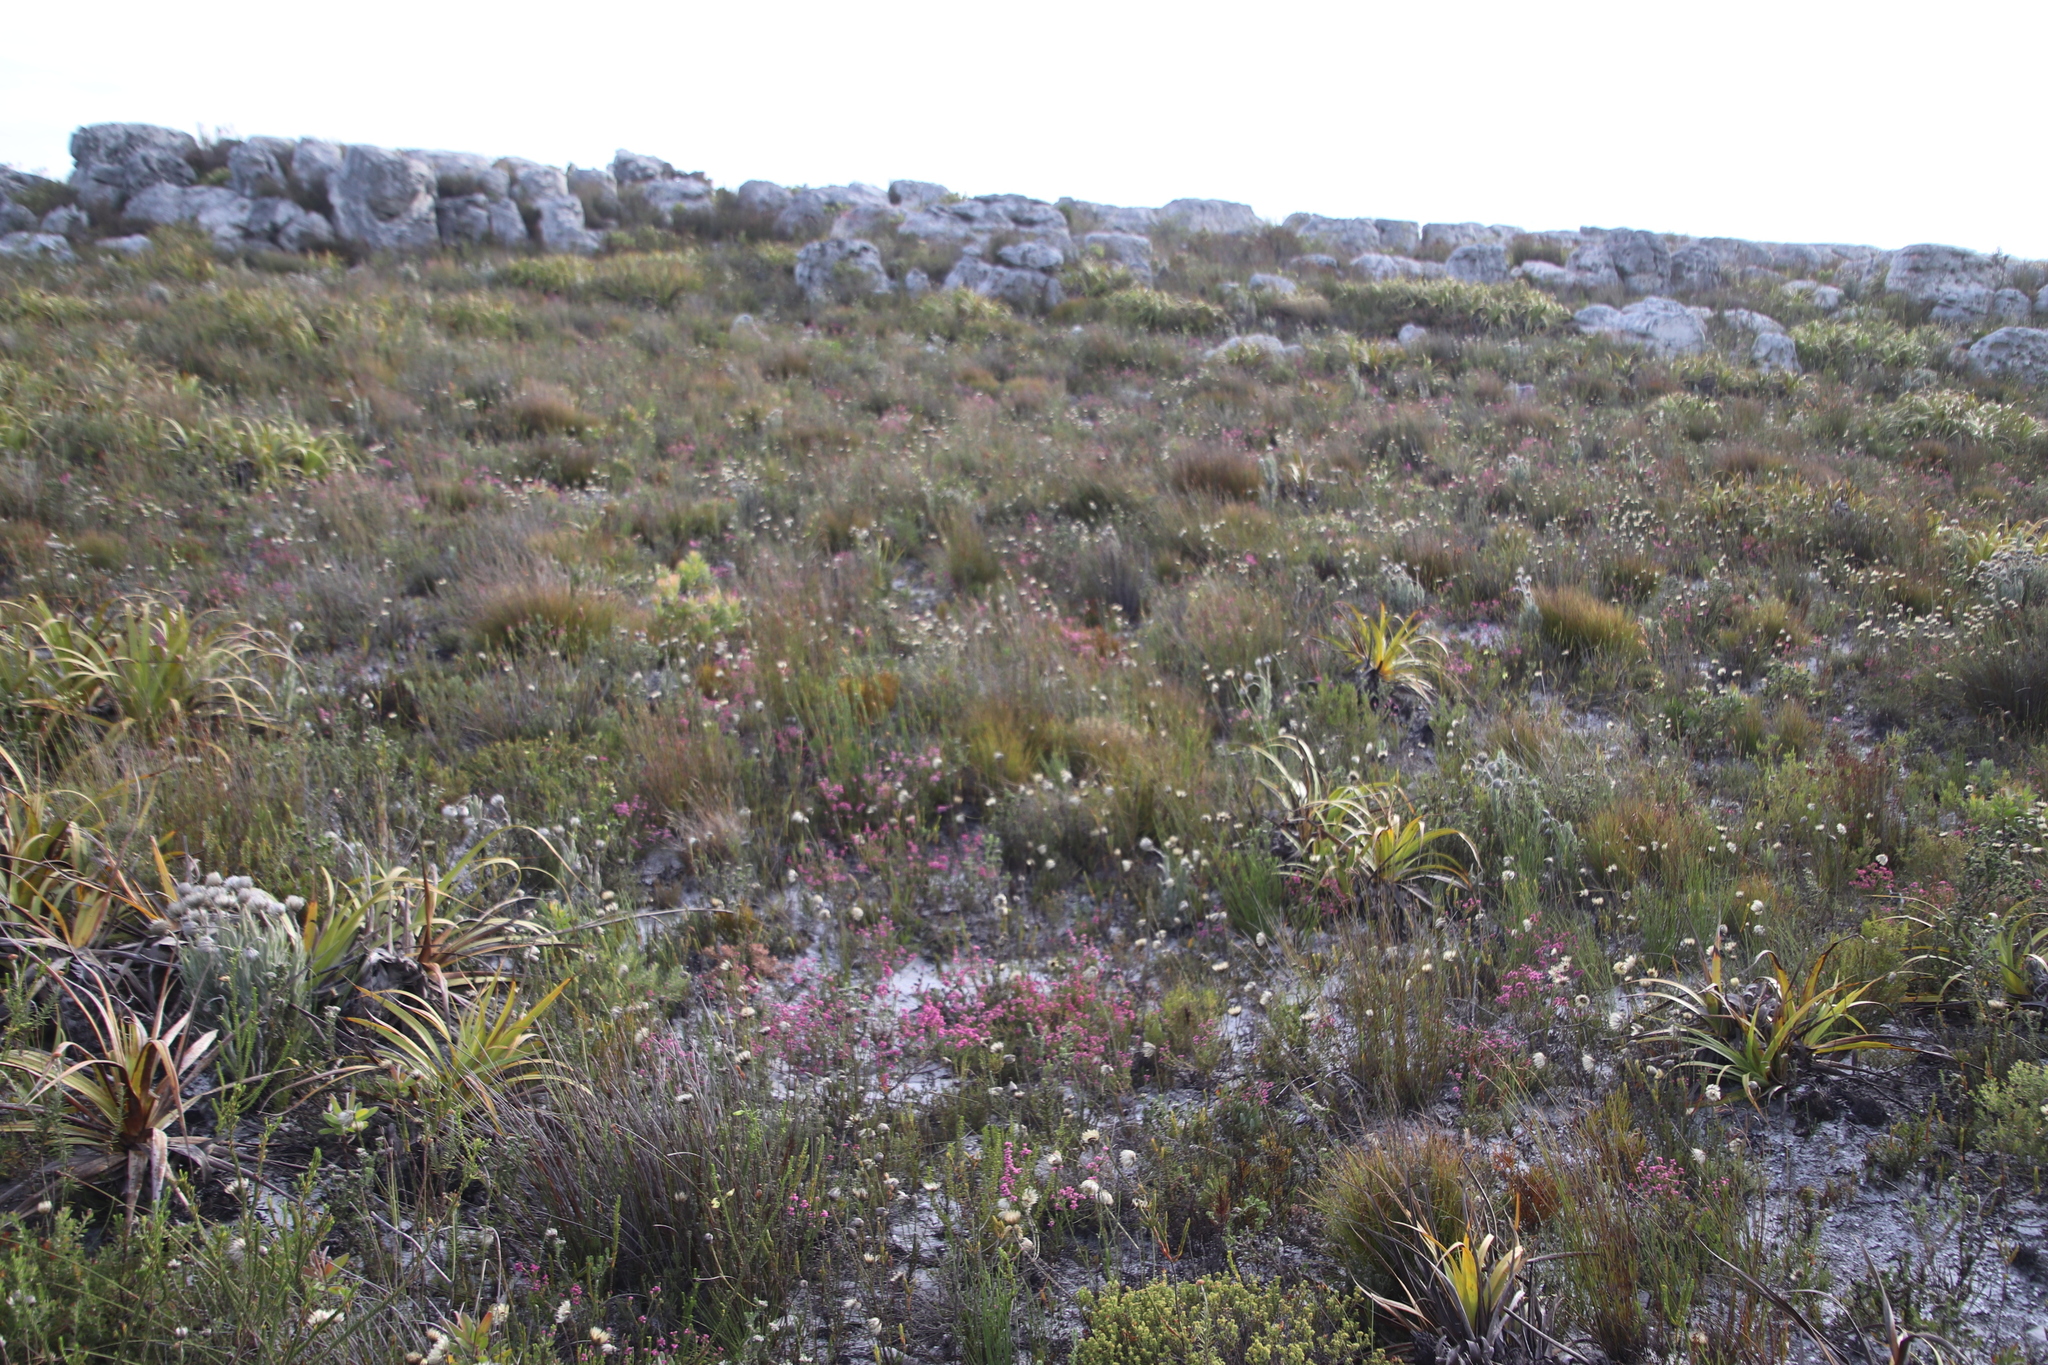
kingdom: Plantae
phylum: Tracheophyta
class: Magnoliopsida
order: Ericales
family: Ericaceae
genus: Erica
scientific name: Erica corifolia
